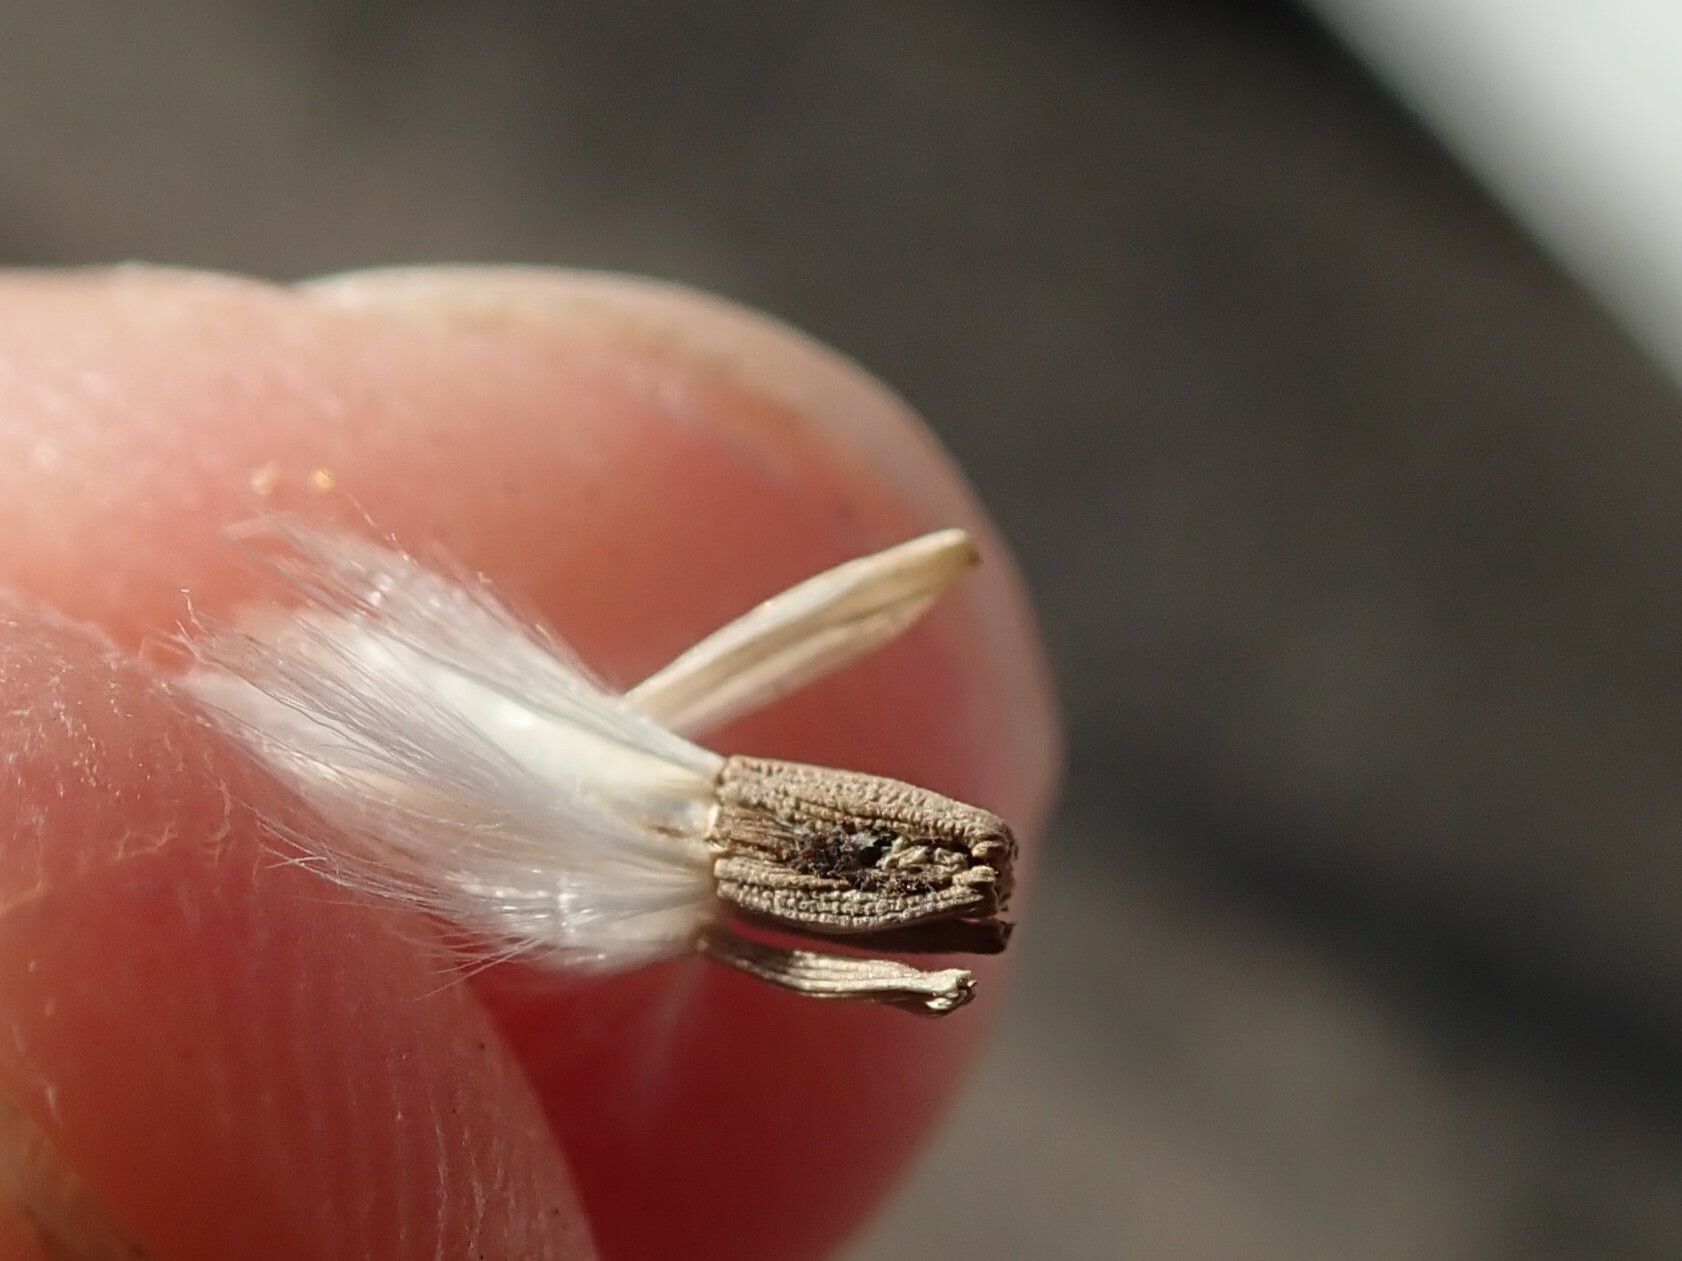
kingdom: Plantae
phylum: Tracheophyta
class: Magnoliopsida
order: Asterales
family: Asteraceae
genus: Launaea
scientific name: Launaea arborescens
